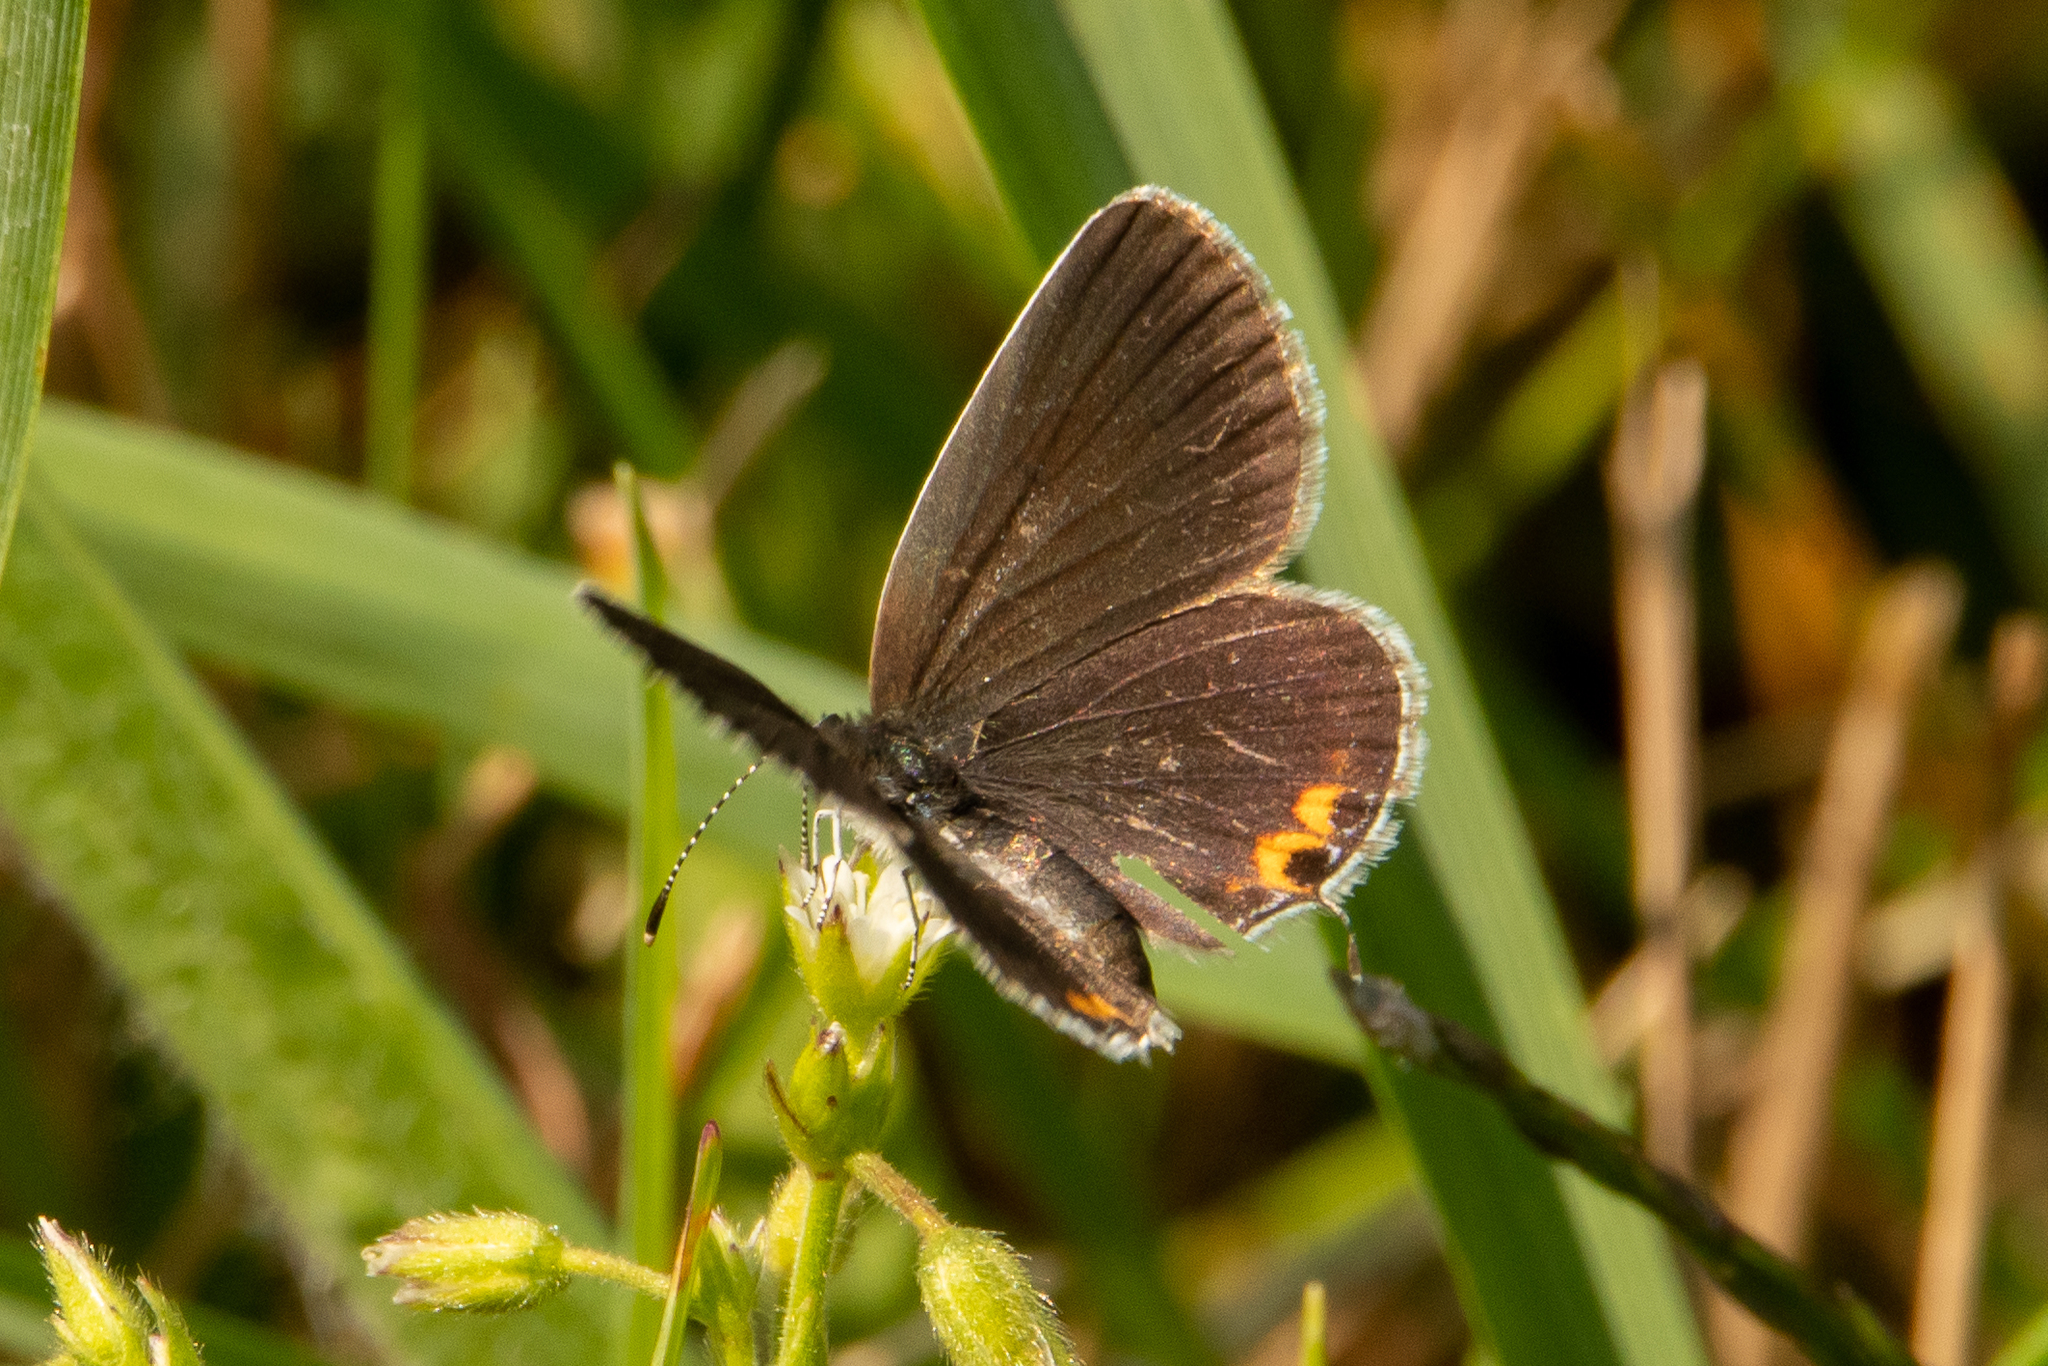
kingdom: Animalia
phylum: Arthropoda
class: Insecta
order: Lepidoptera
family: Lycaenidae
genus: Elkalyce
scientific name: Elkalyce comyntas
